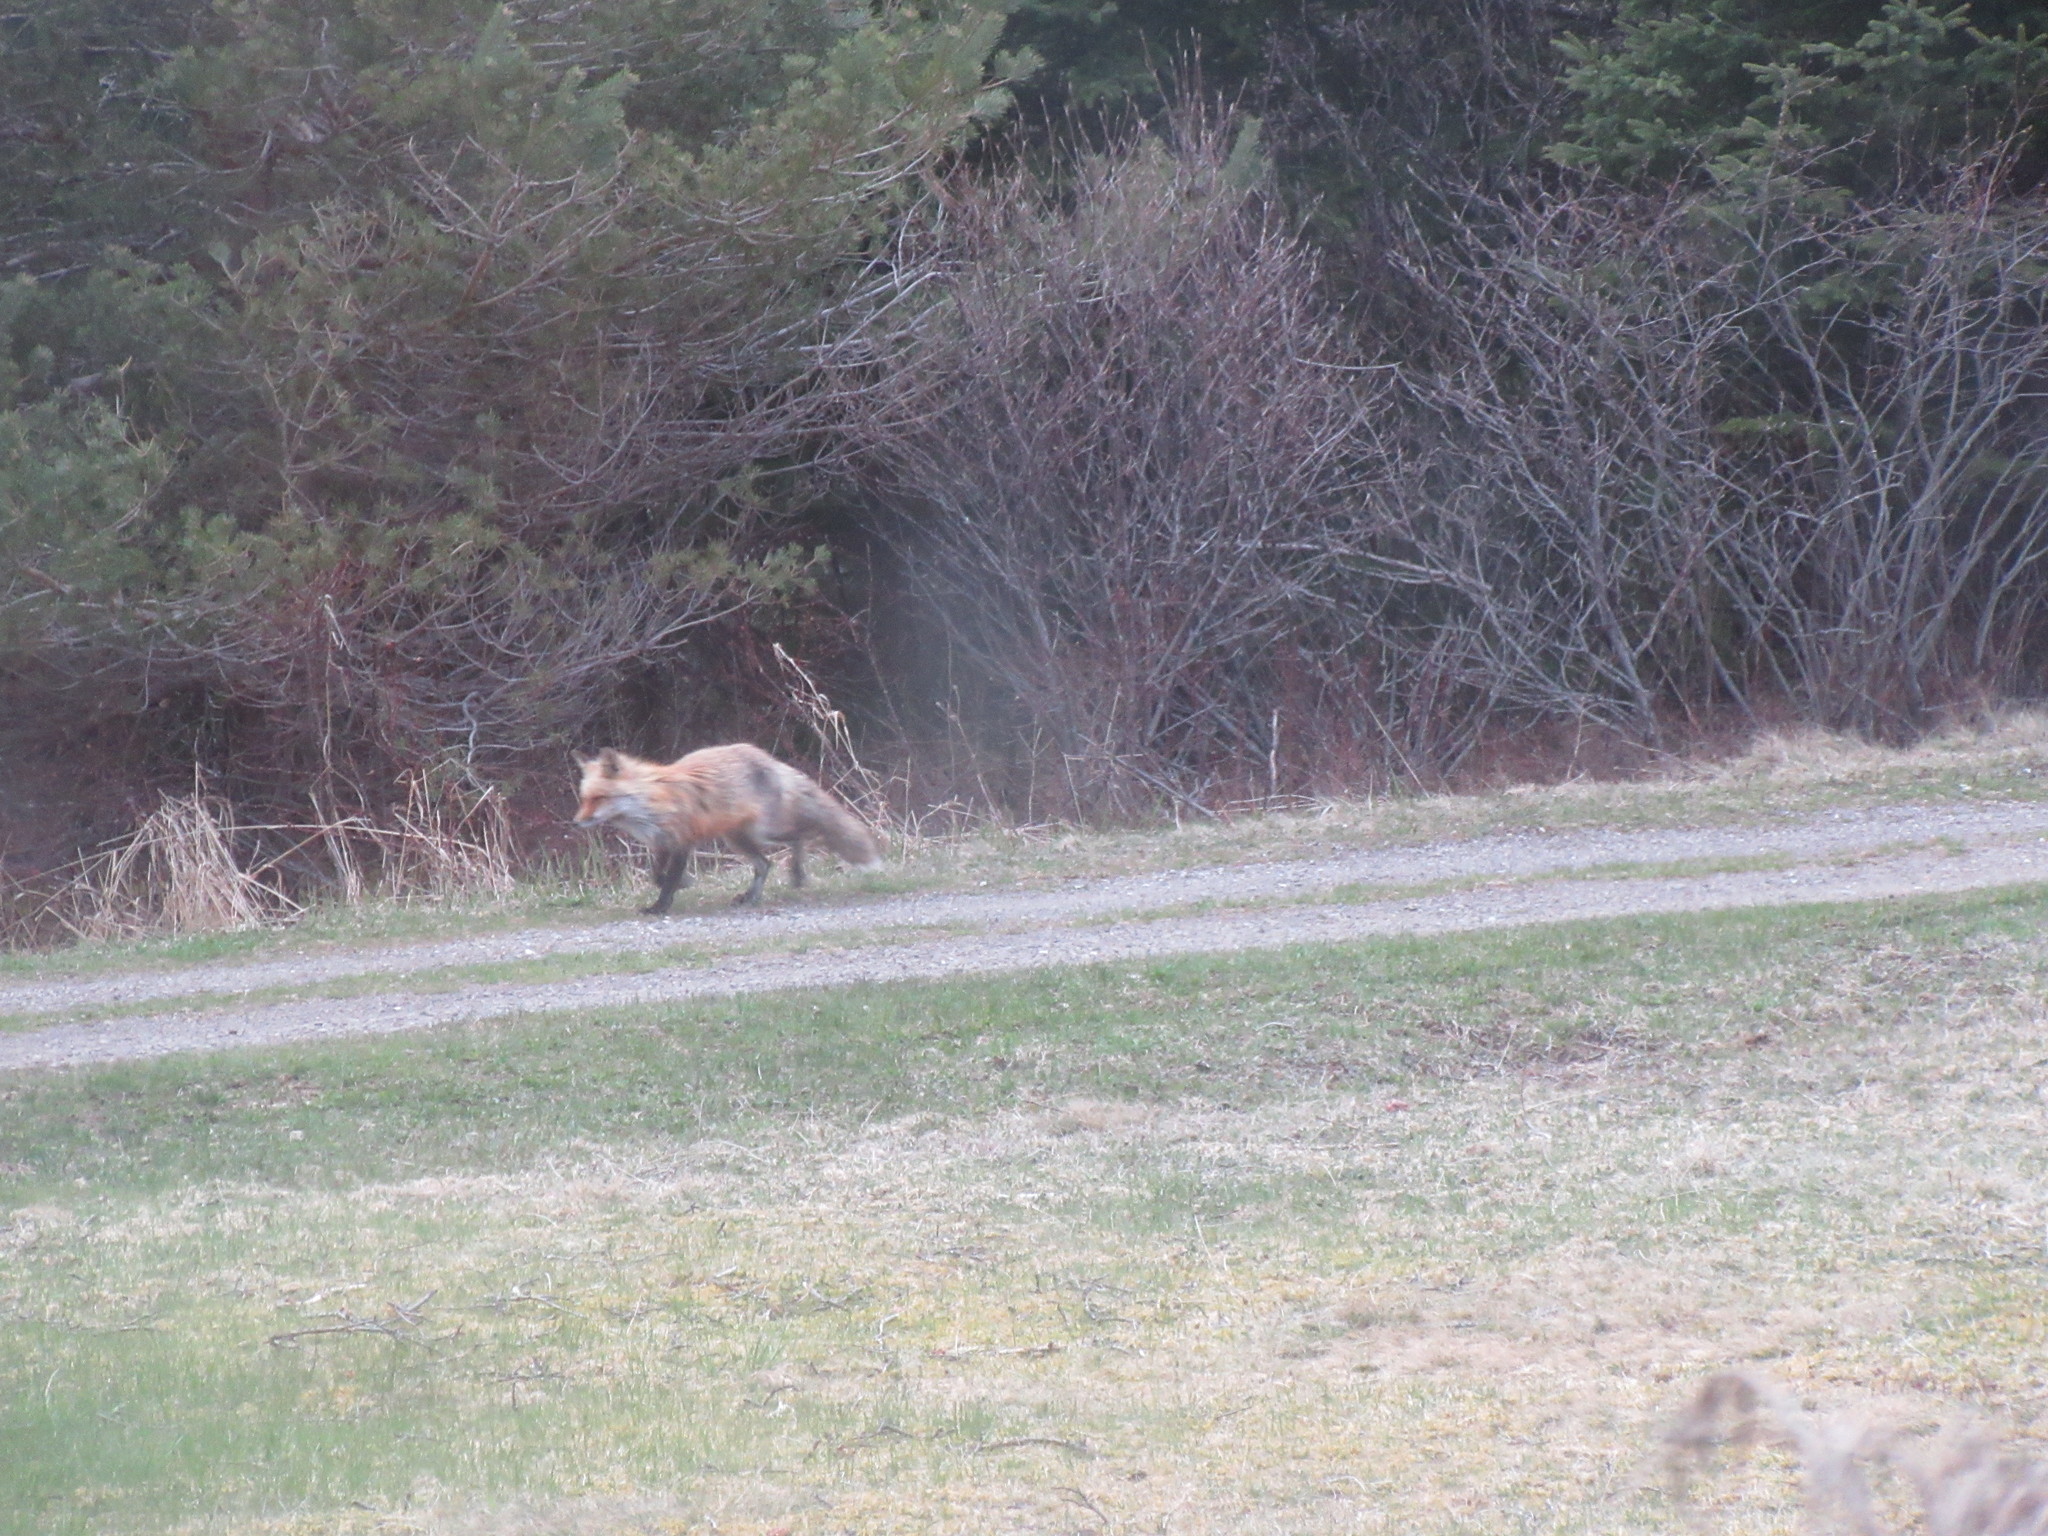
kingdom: Animalia
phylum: Chordata
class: Mammalia
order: Carnivora
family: Canidae
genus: Vulpes
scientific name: Vulpes vulpes
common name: Red fox
